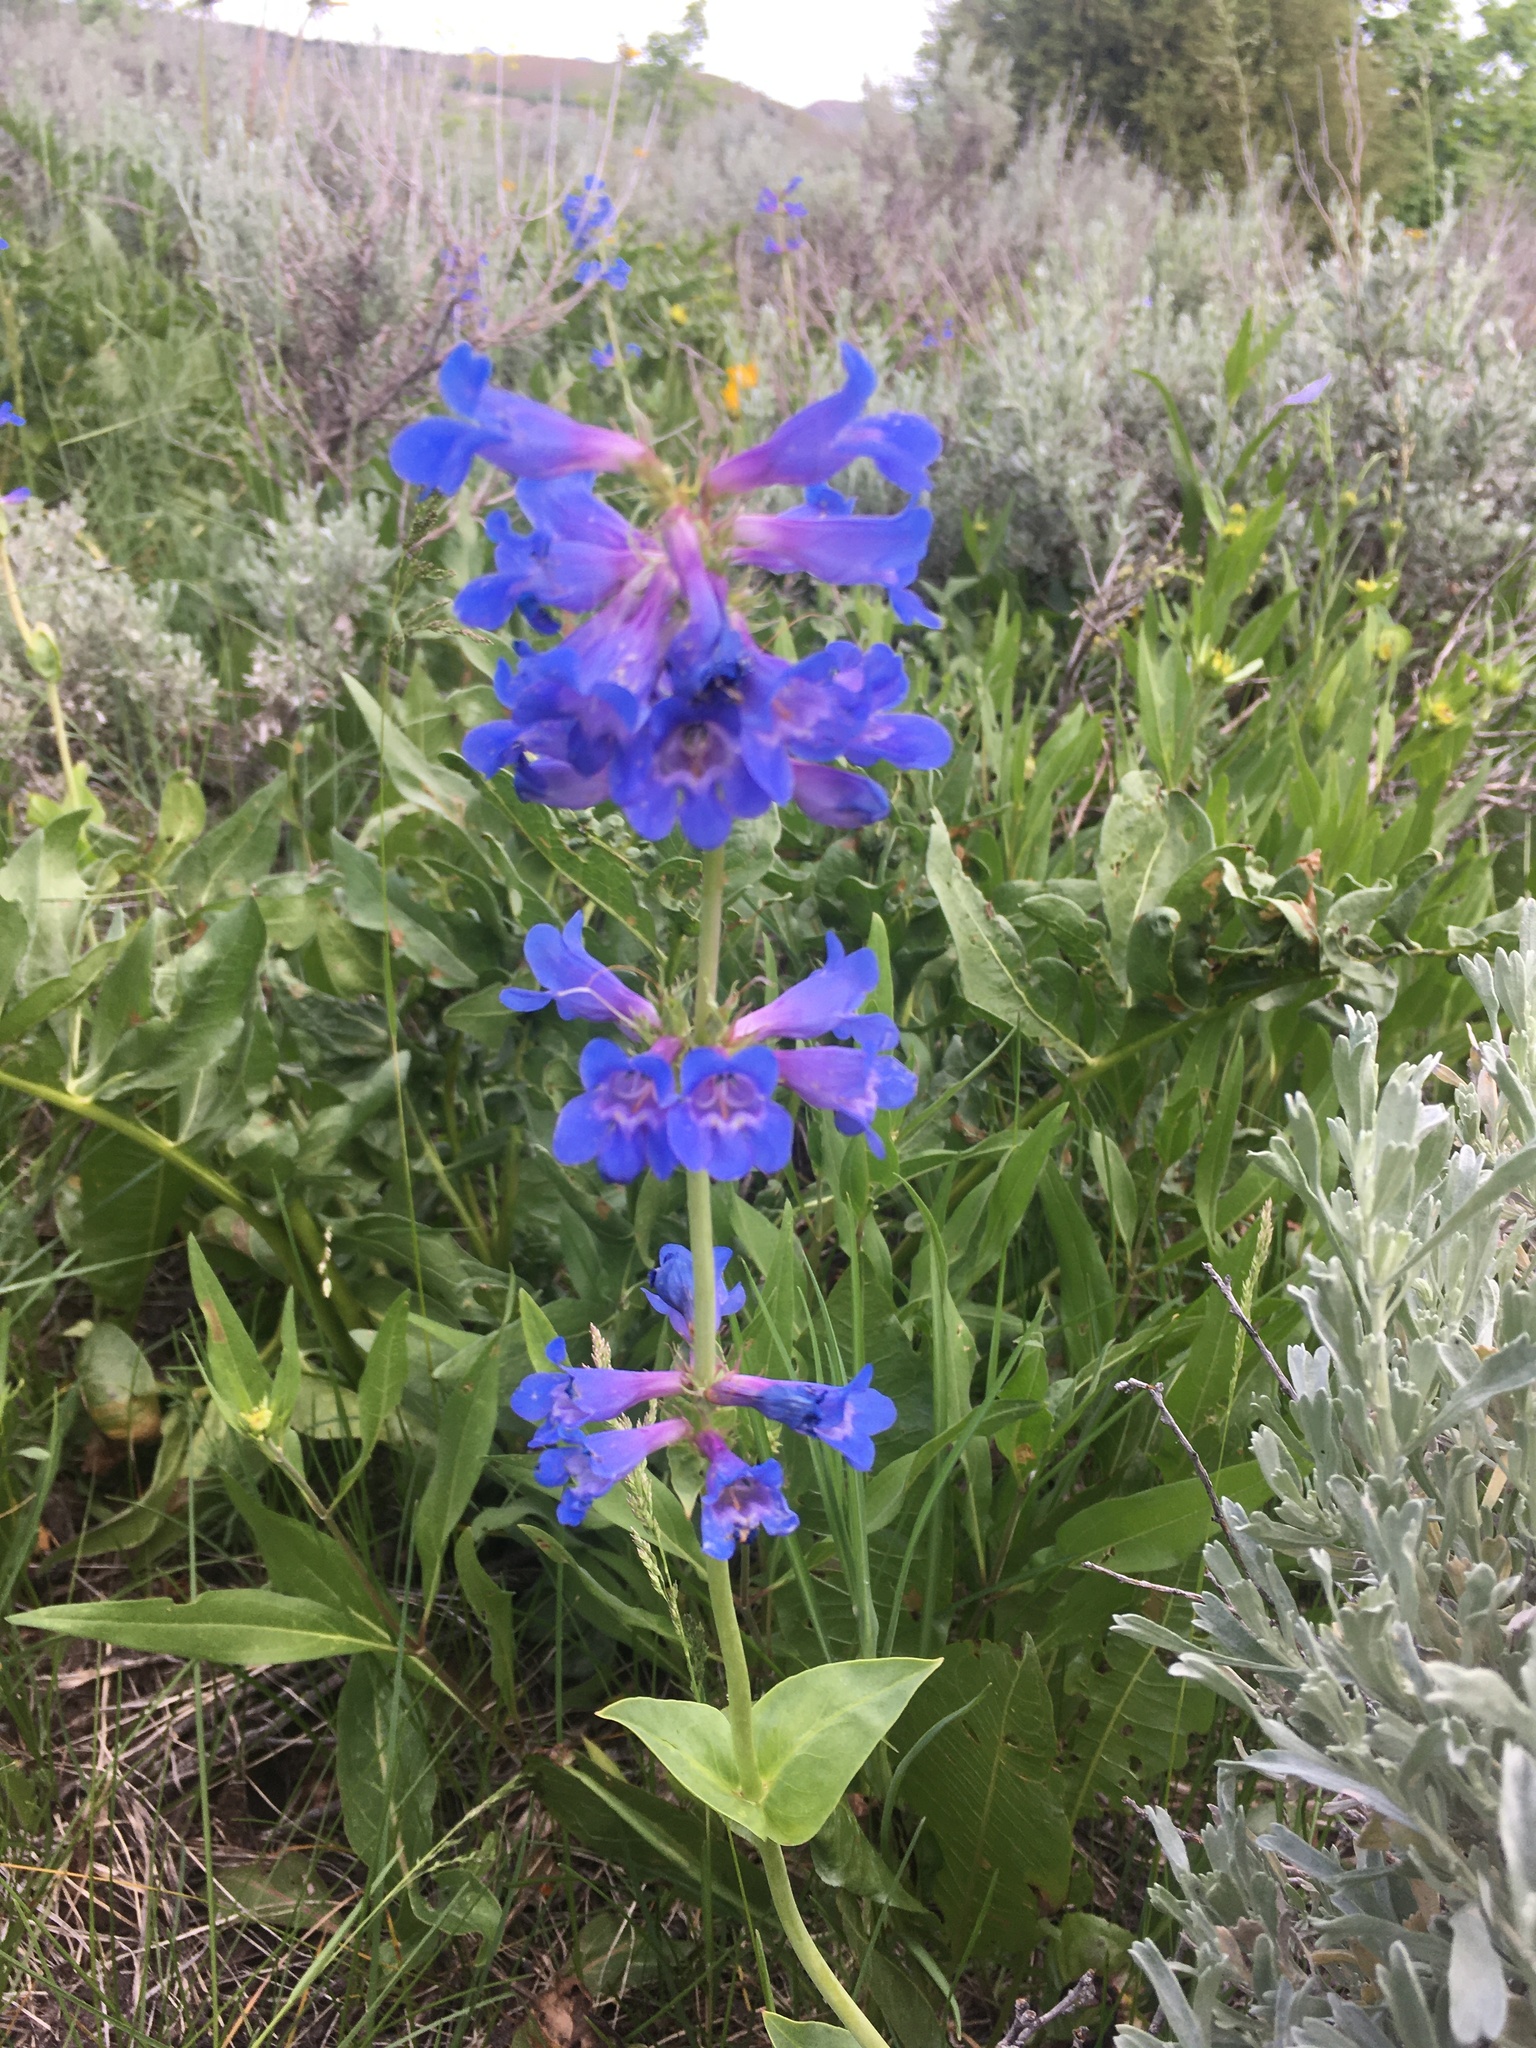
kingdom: Plantae
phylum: Tracheophyta
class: Magnoliopsida
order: Lamiales
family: Plantaginaceae
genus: Penstemon
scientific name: Penstemon cyananthus
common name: Wasatch penstemon
